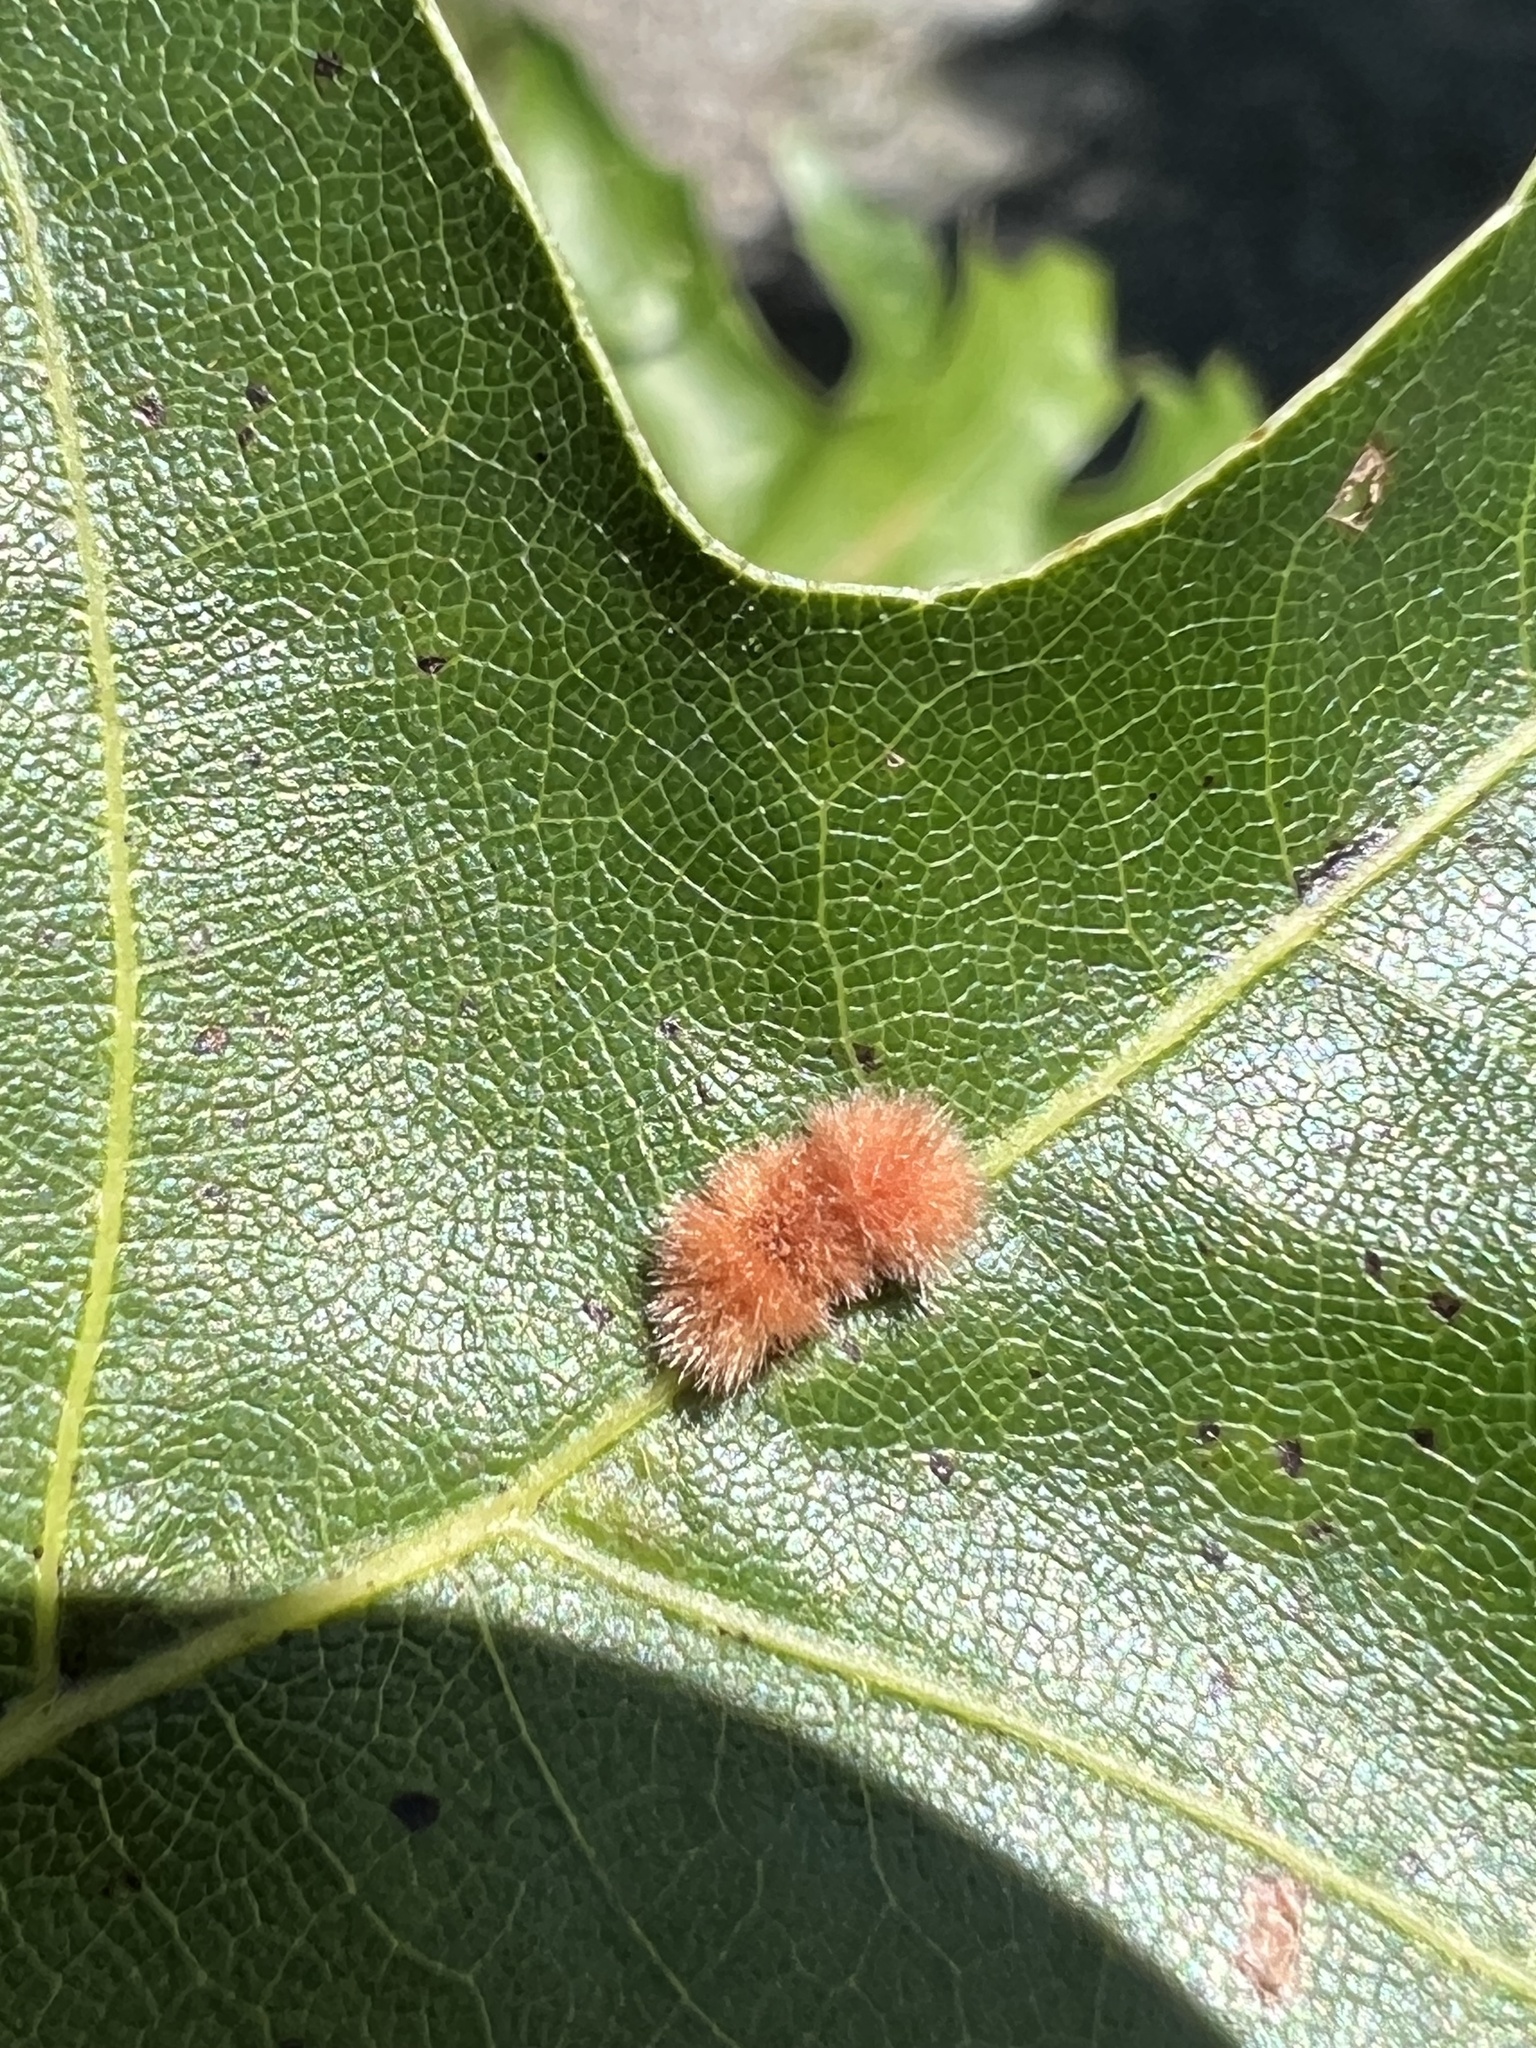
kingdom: Animalia
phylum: Arthropoda
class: Insecta
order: Hymenoptera
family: Cynipidae
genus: Callirhytis
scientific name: Callirhytis
